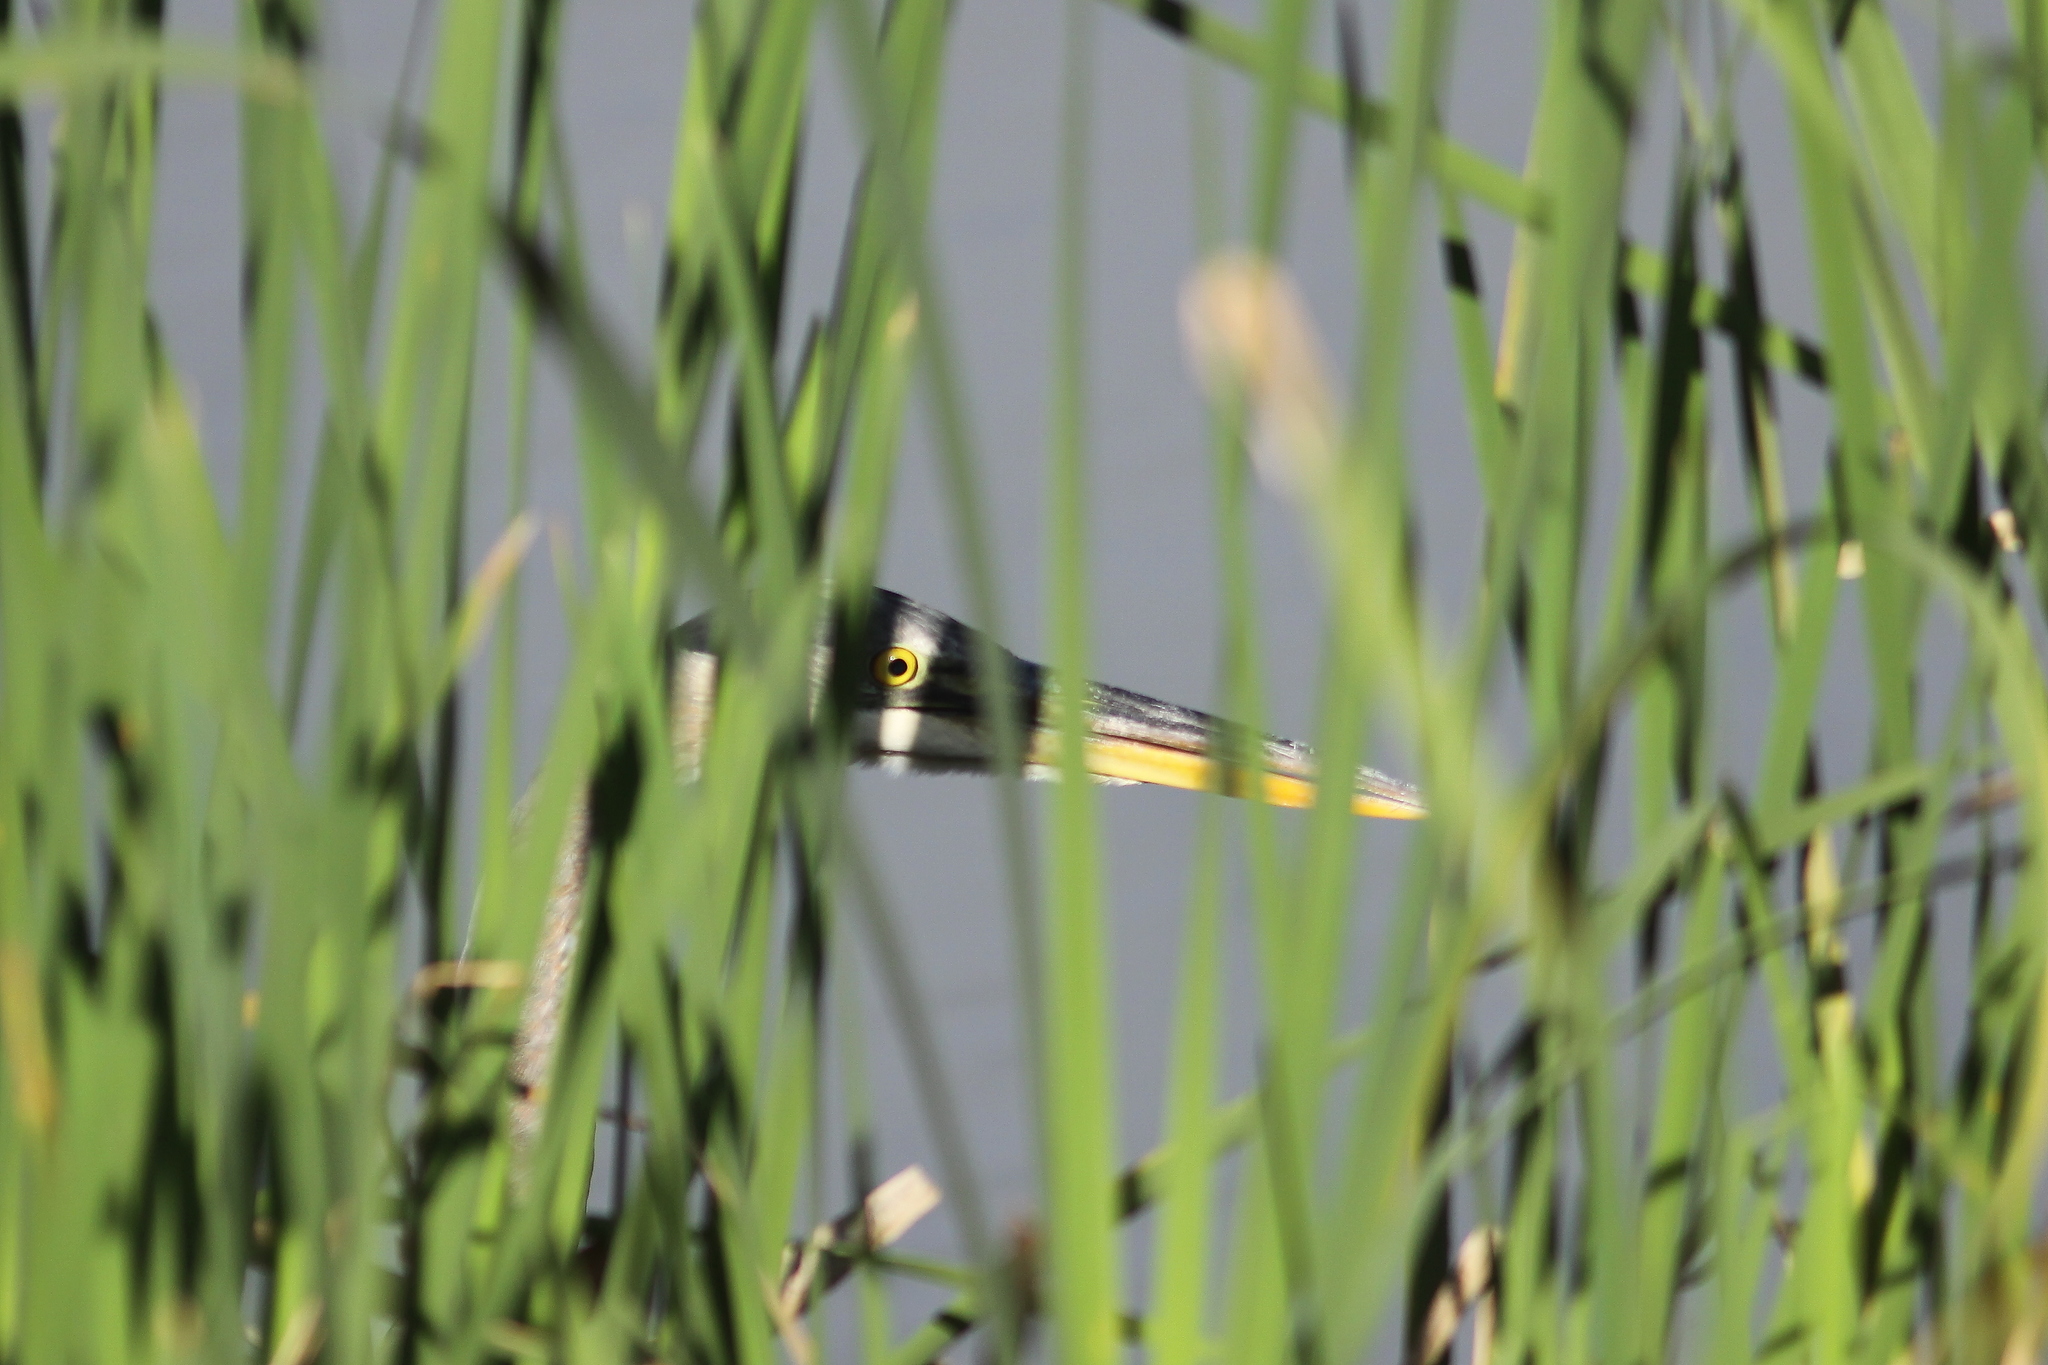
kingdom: Animalia
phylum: Chordata
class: Aves
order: Pelecaniformes
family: Ardeidae
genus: Ardea
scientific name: Ardea herodias
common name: Great blue heron
